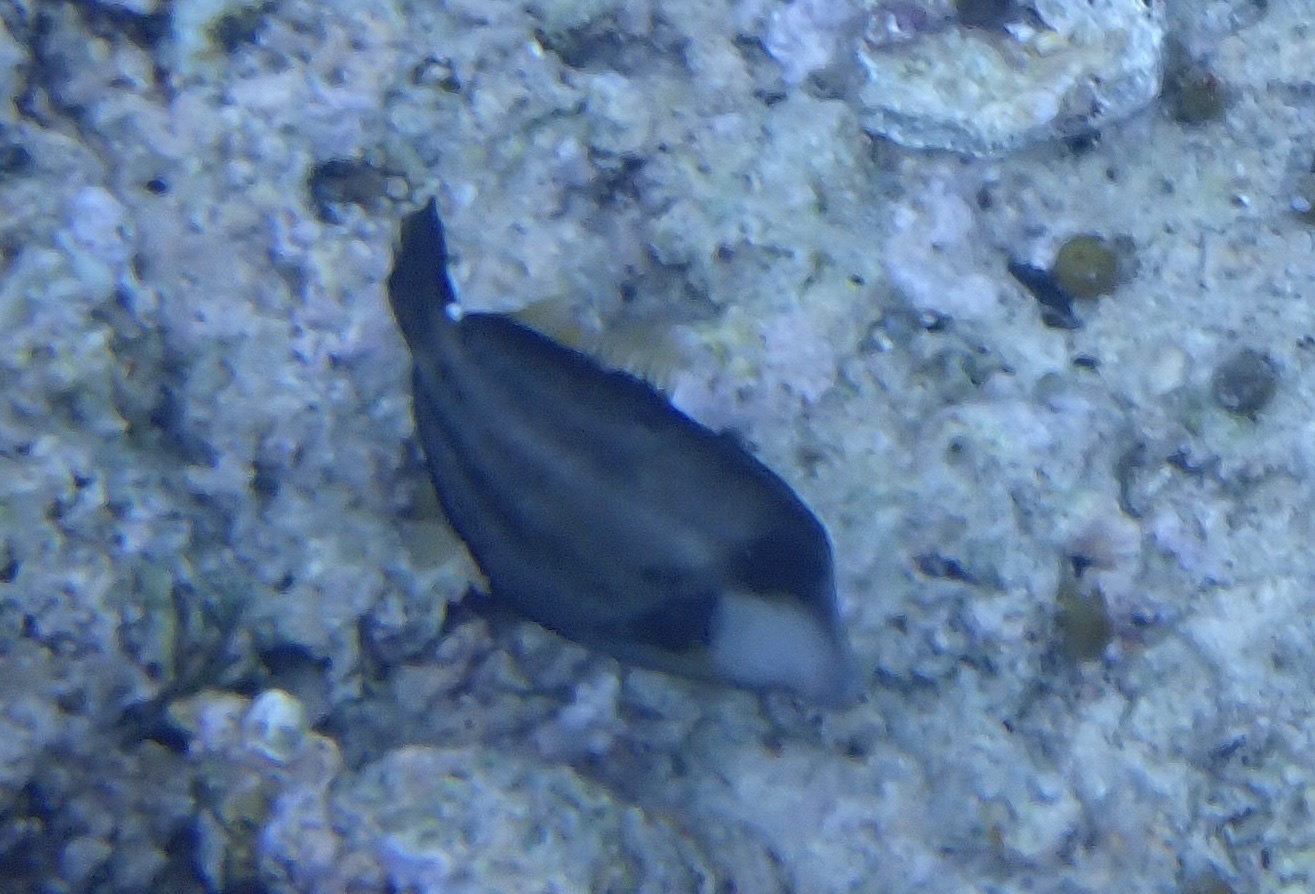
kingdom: Animalia
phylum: Chordata
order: Tetraodontiformes
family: Monacanthidae
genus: Cantherhines
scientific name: Cantherhines fronticinctus
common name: Spectacled filefish
